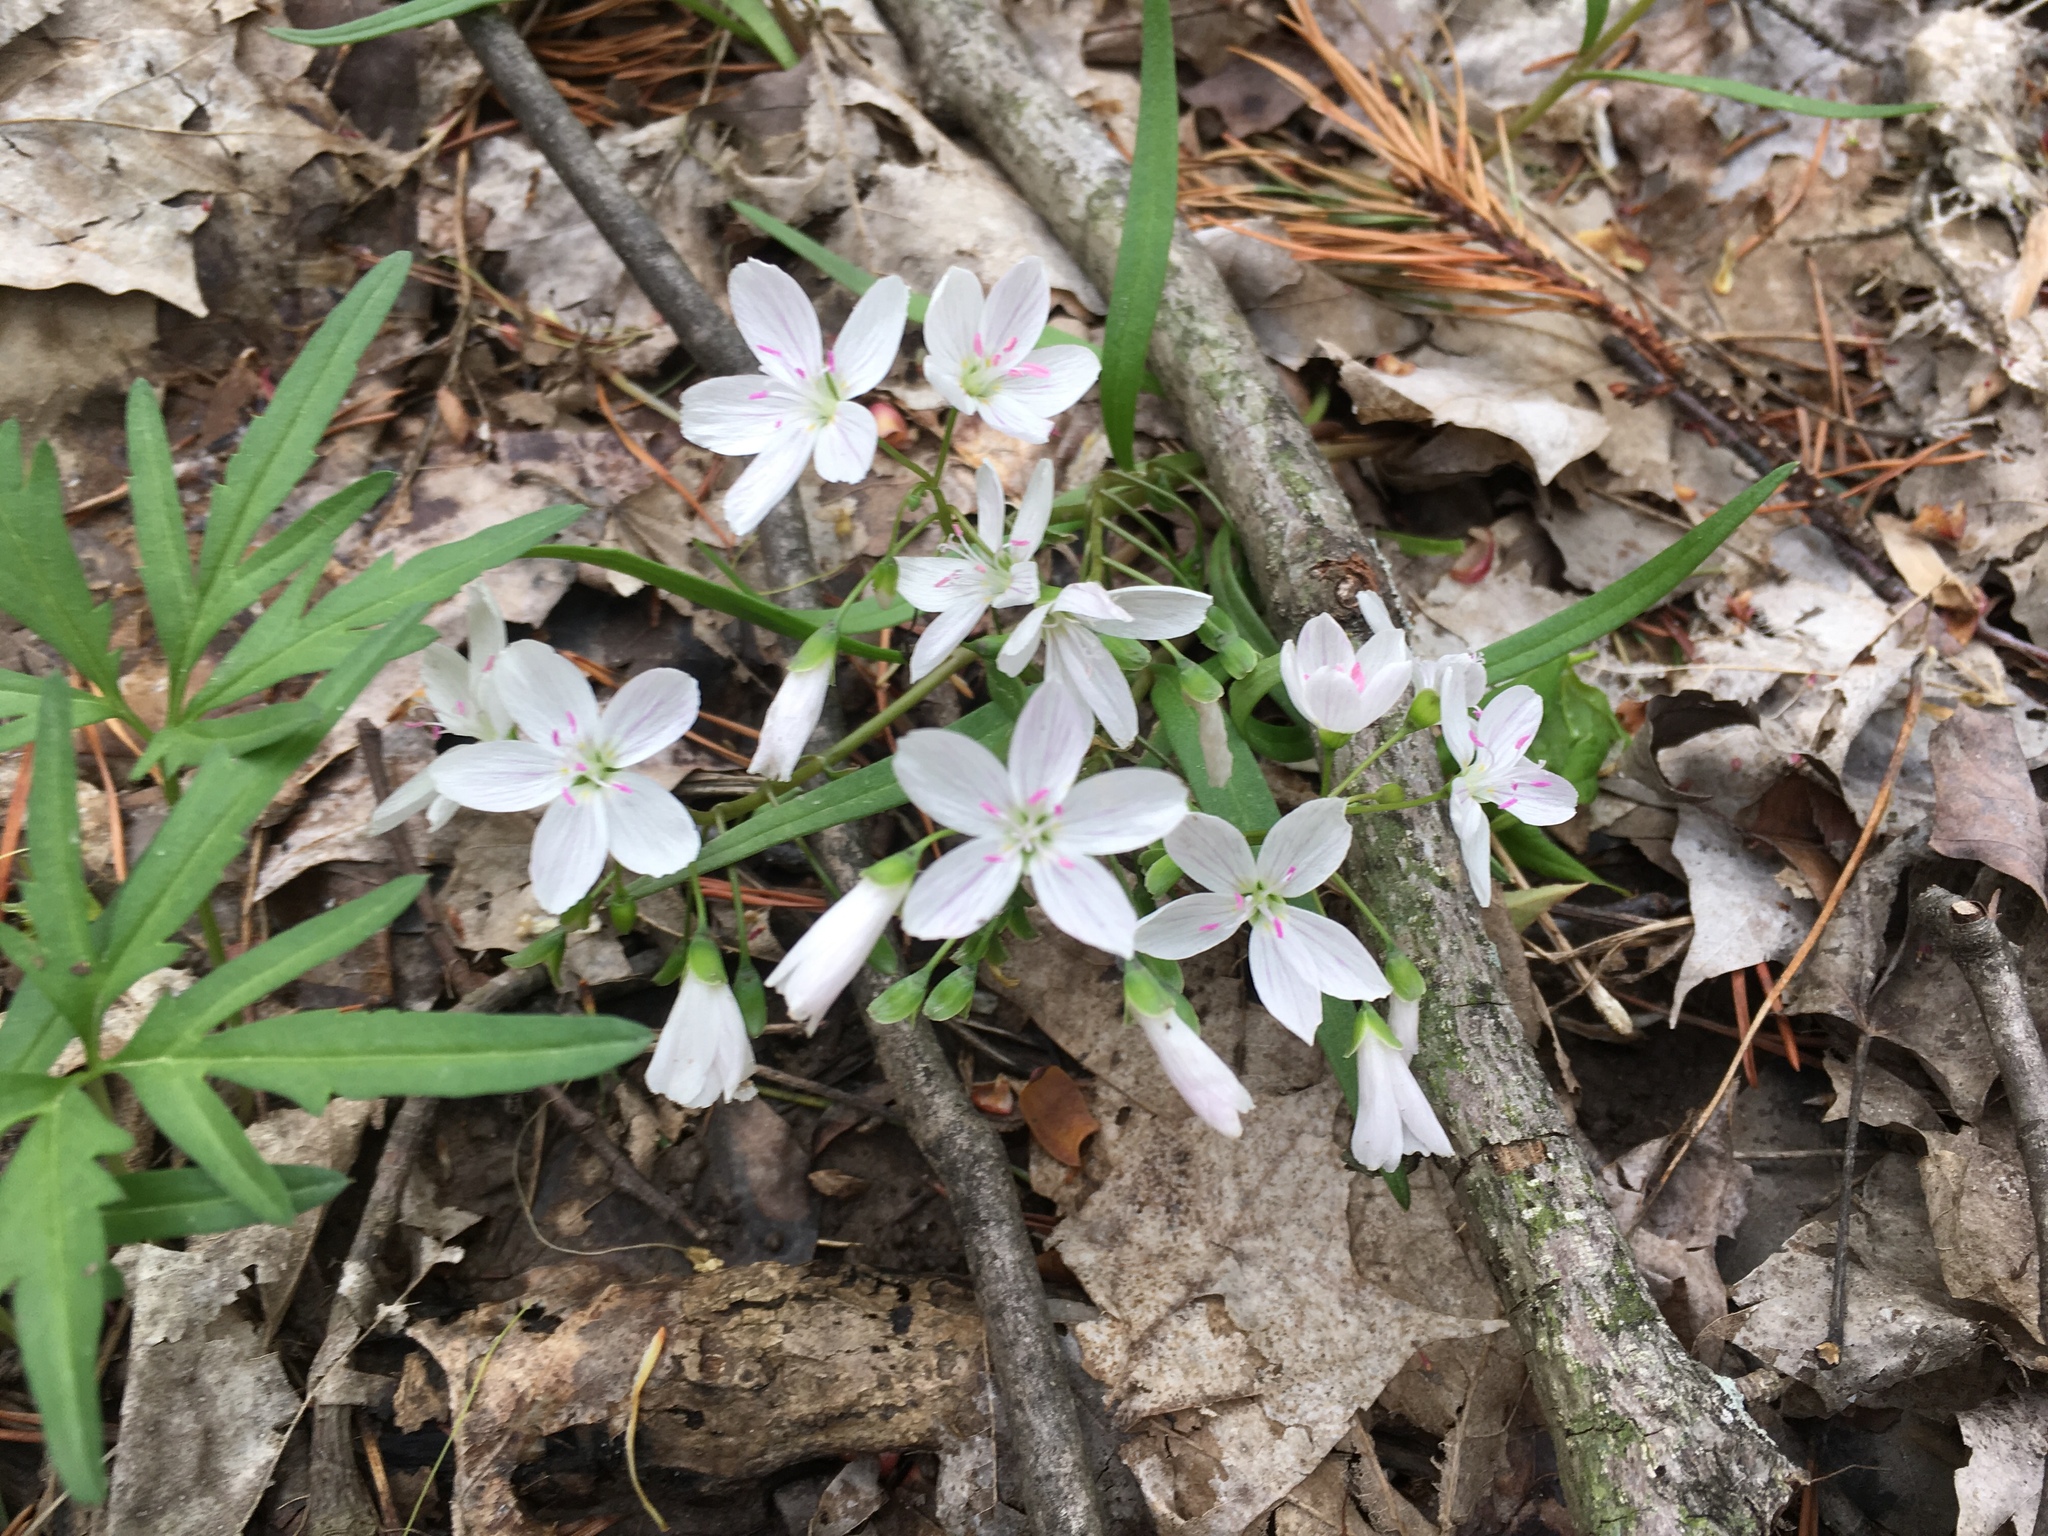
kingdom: Plantae
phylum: Tracheophyta
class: Magnoliopsida
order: Caryophyllales
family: Montiaceae
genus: Claytonia
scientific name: Claytonia virginica
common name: Virginia springbeauty
